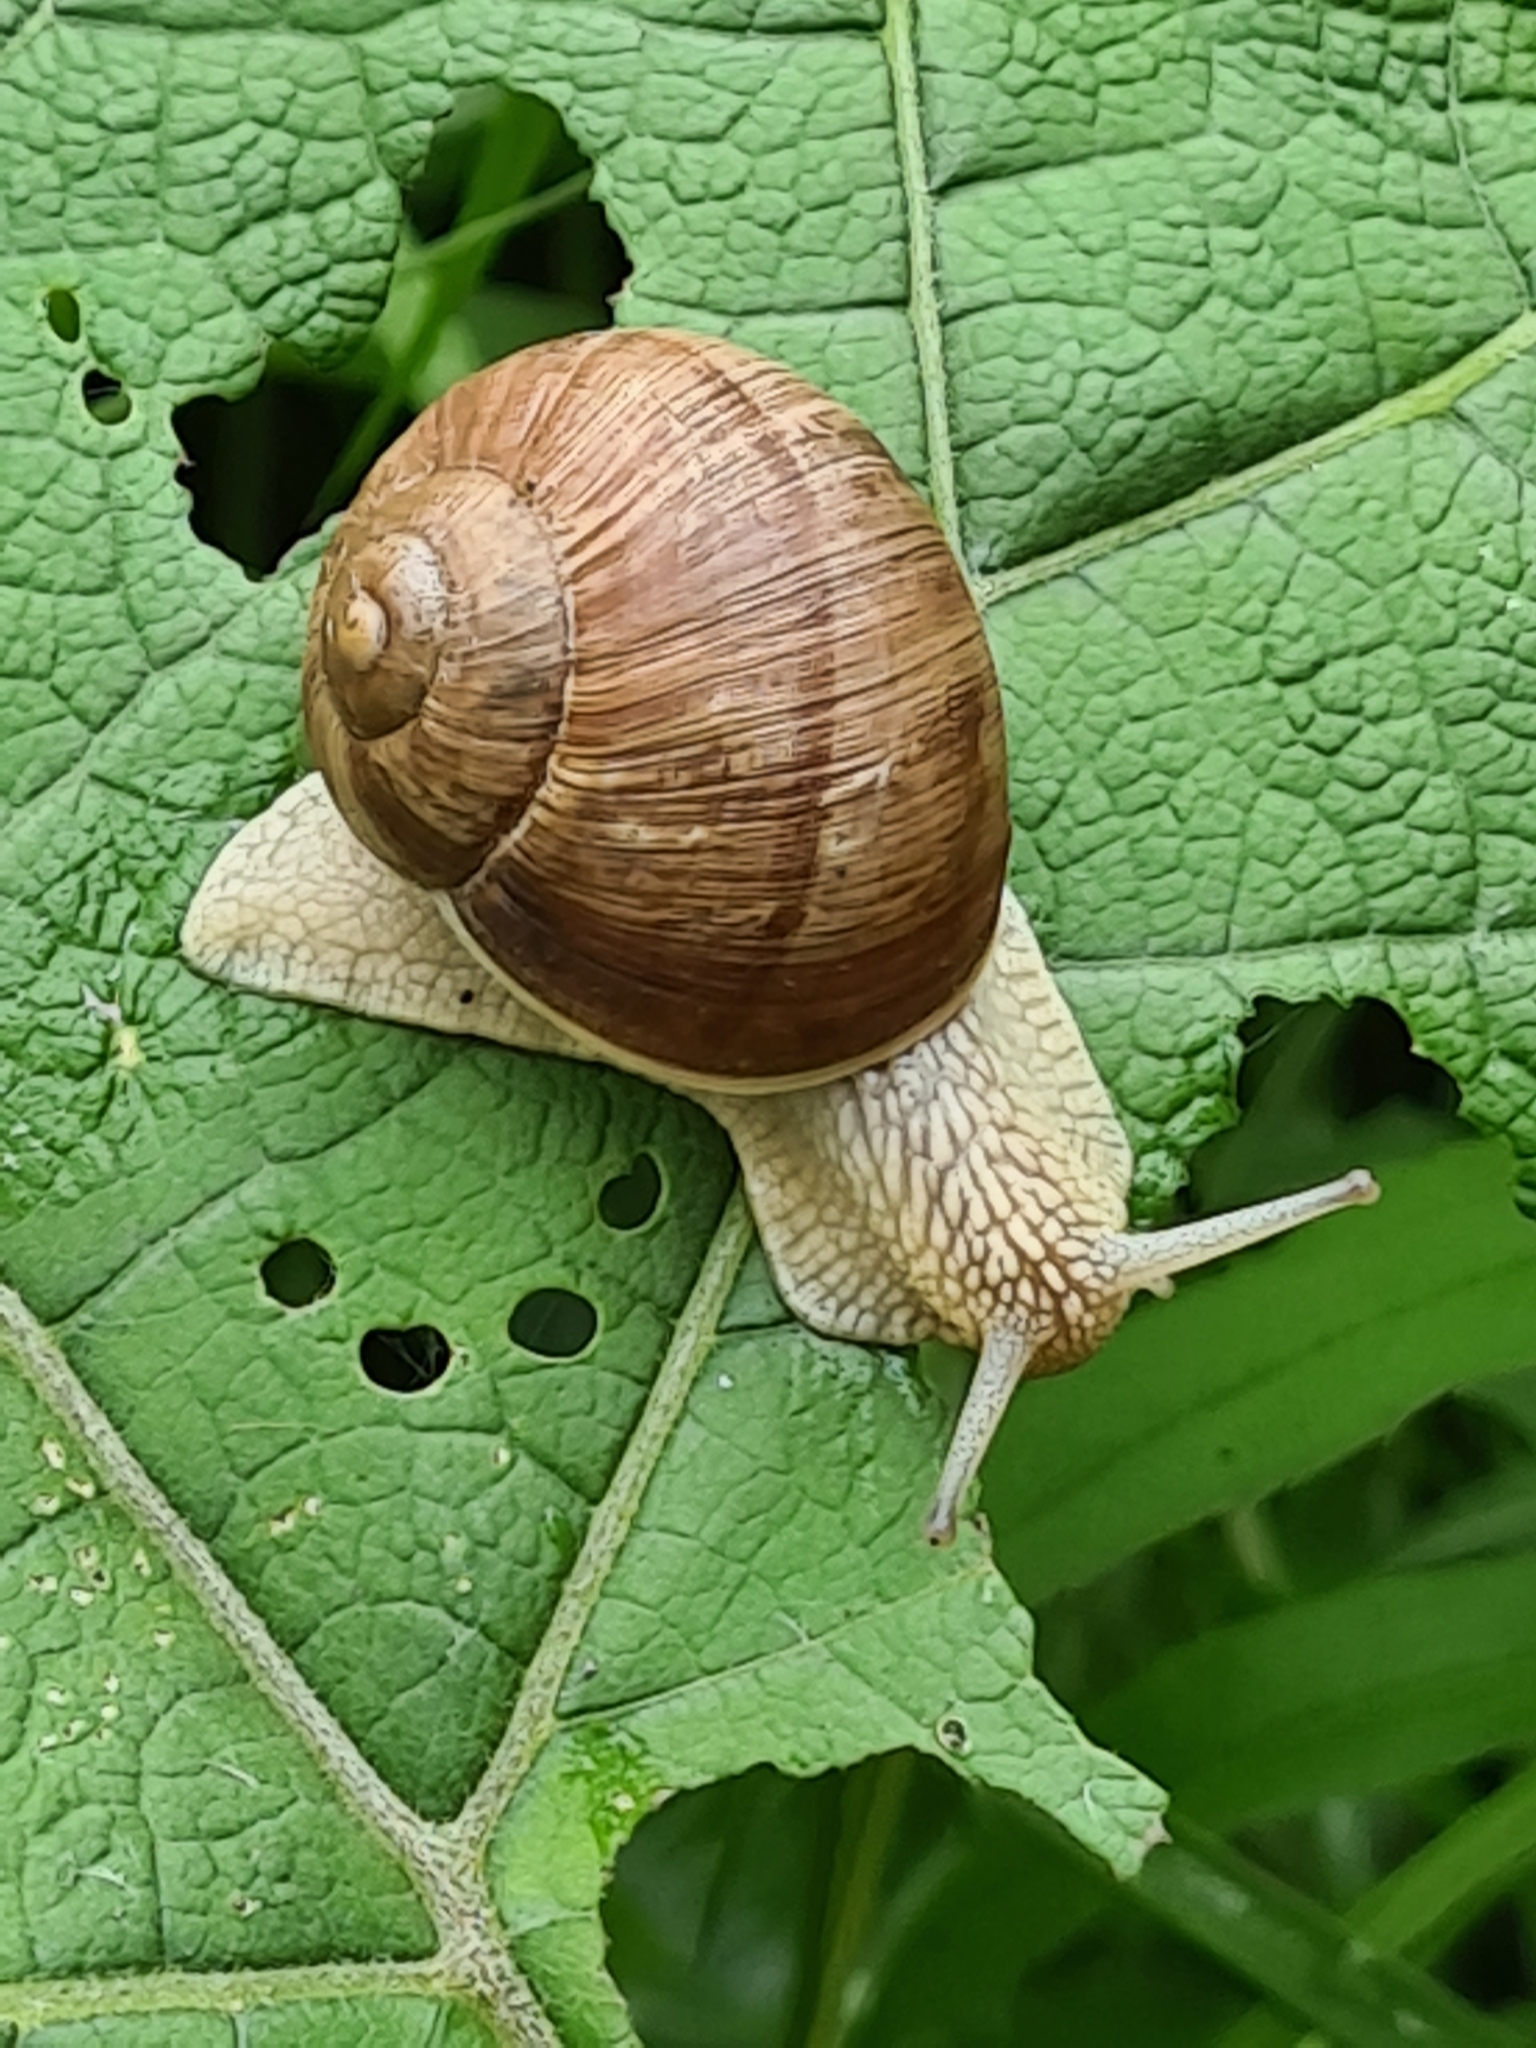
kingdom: Animalia
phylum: Mollusca
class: Gastropoda
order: Stylommatophora
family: Helicidae
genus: Helix
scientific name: Helix pomatia
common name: Roman snail
